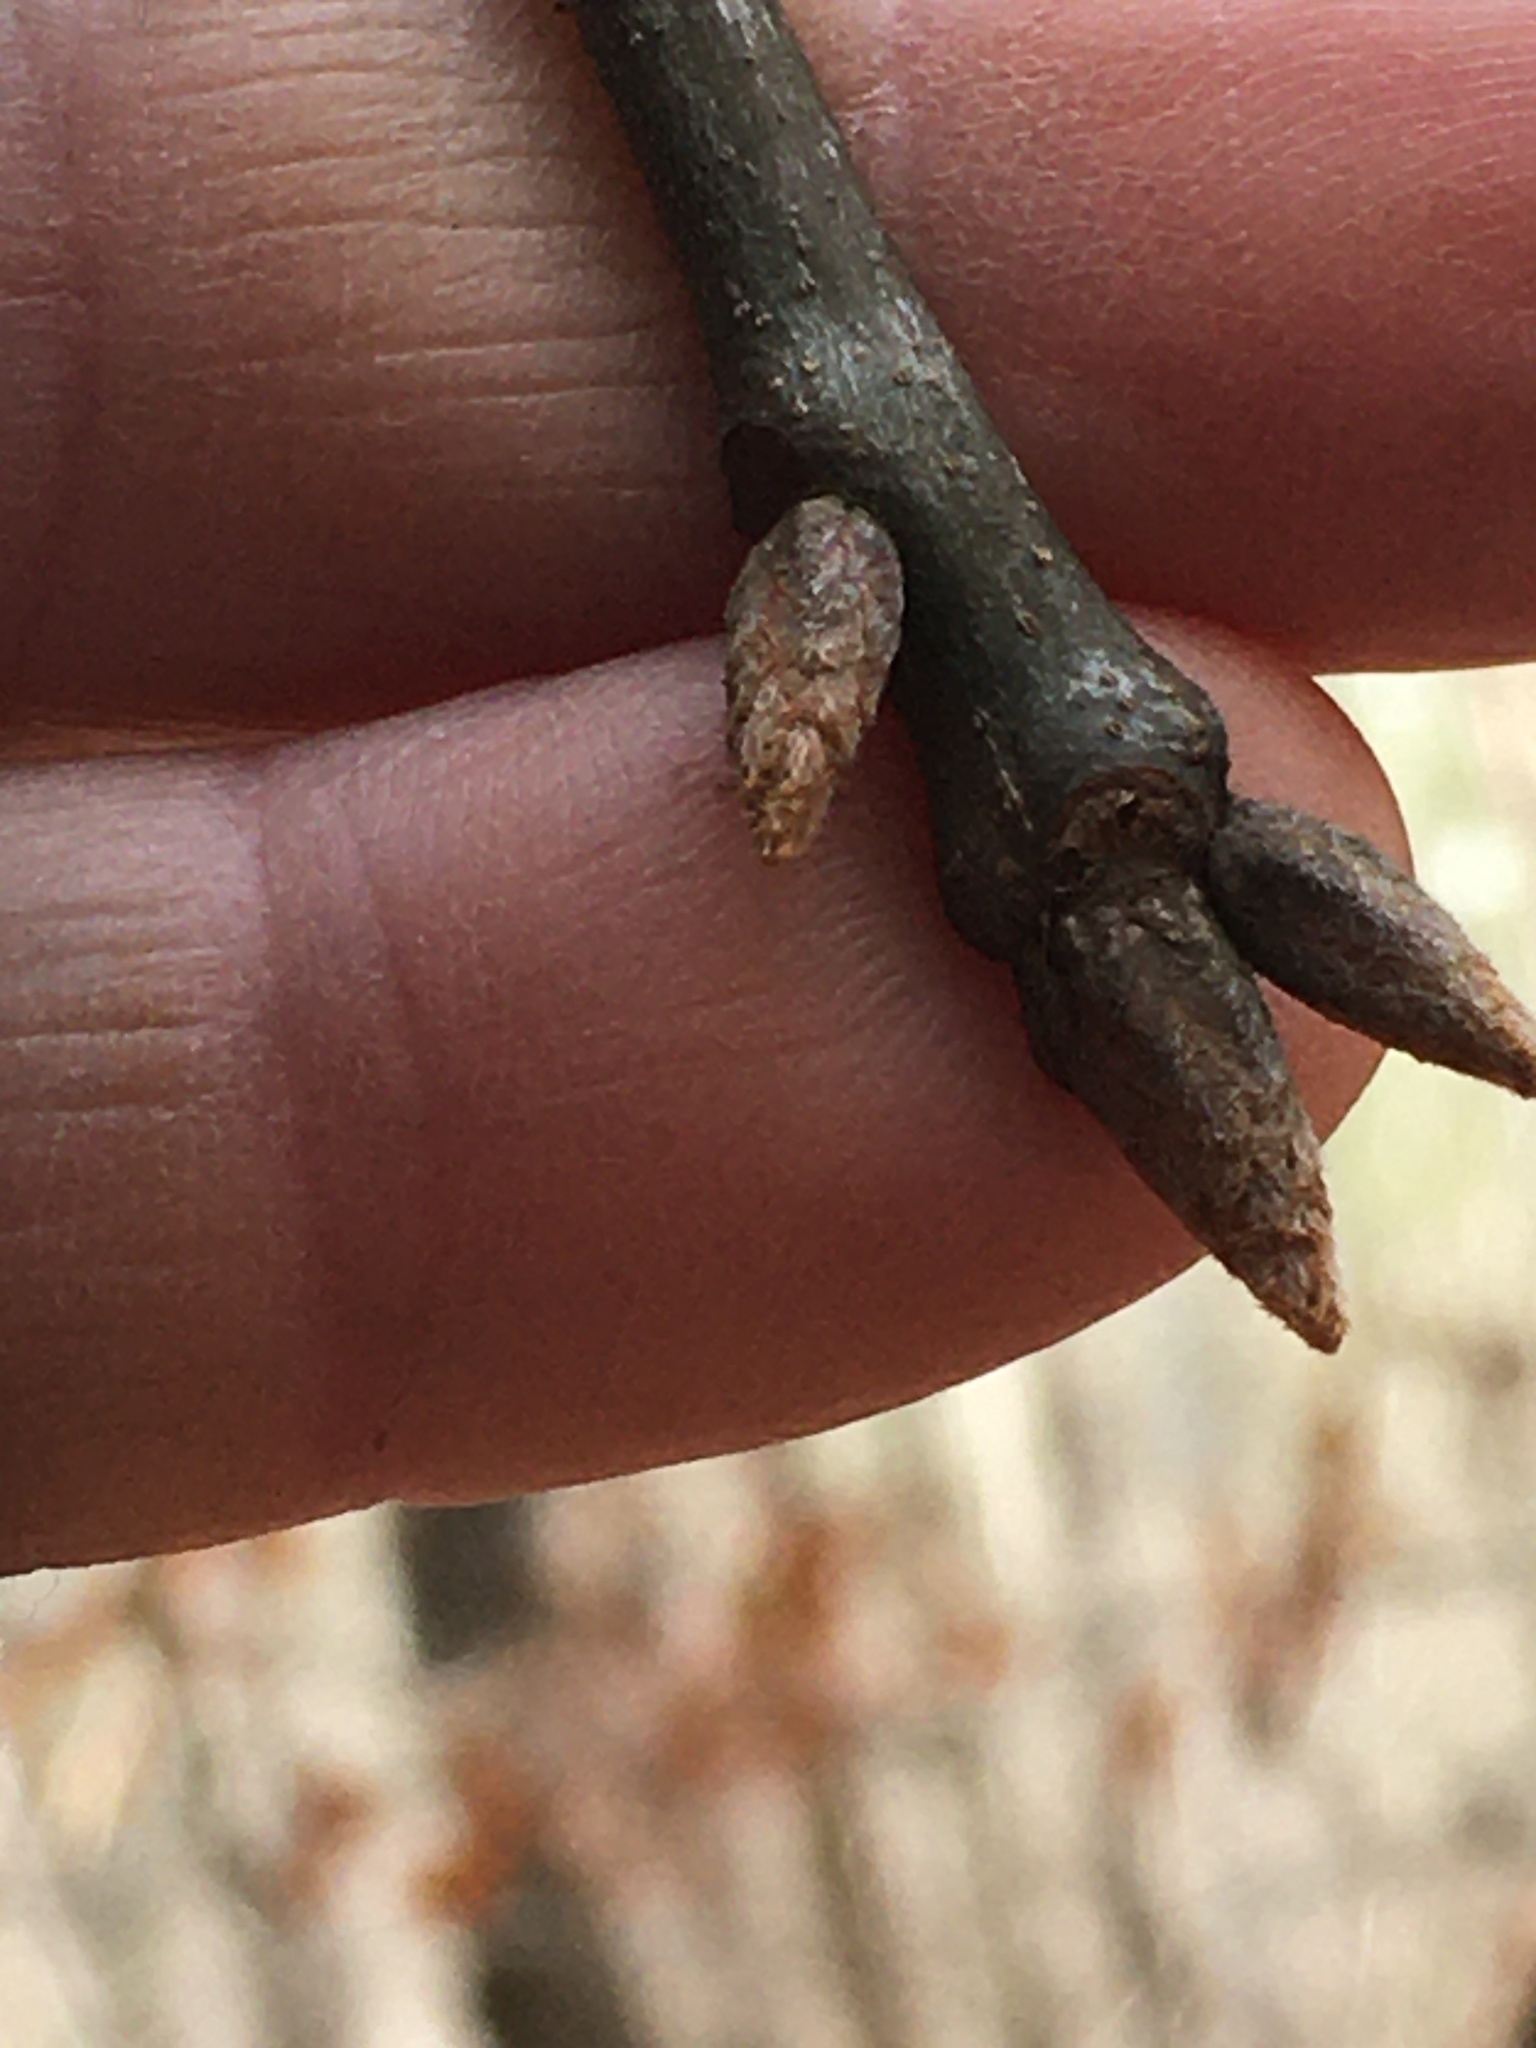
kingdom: Plantae
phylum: Tracheophyta
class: Magnoliopsida
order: Fagales
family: Fagaceae
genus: Quercus
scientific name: Quercus marilandica
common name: Blackjack oak
